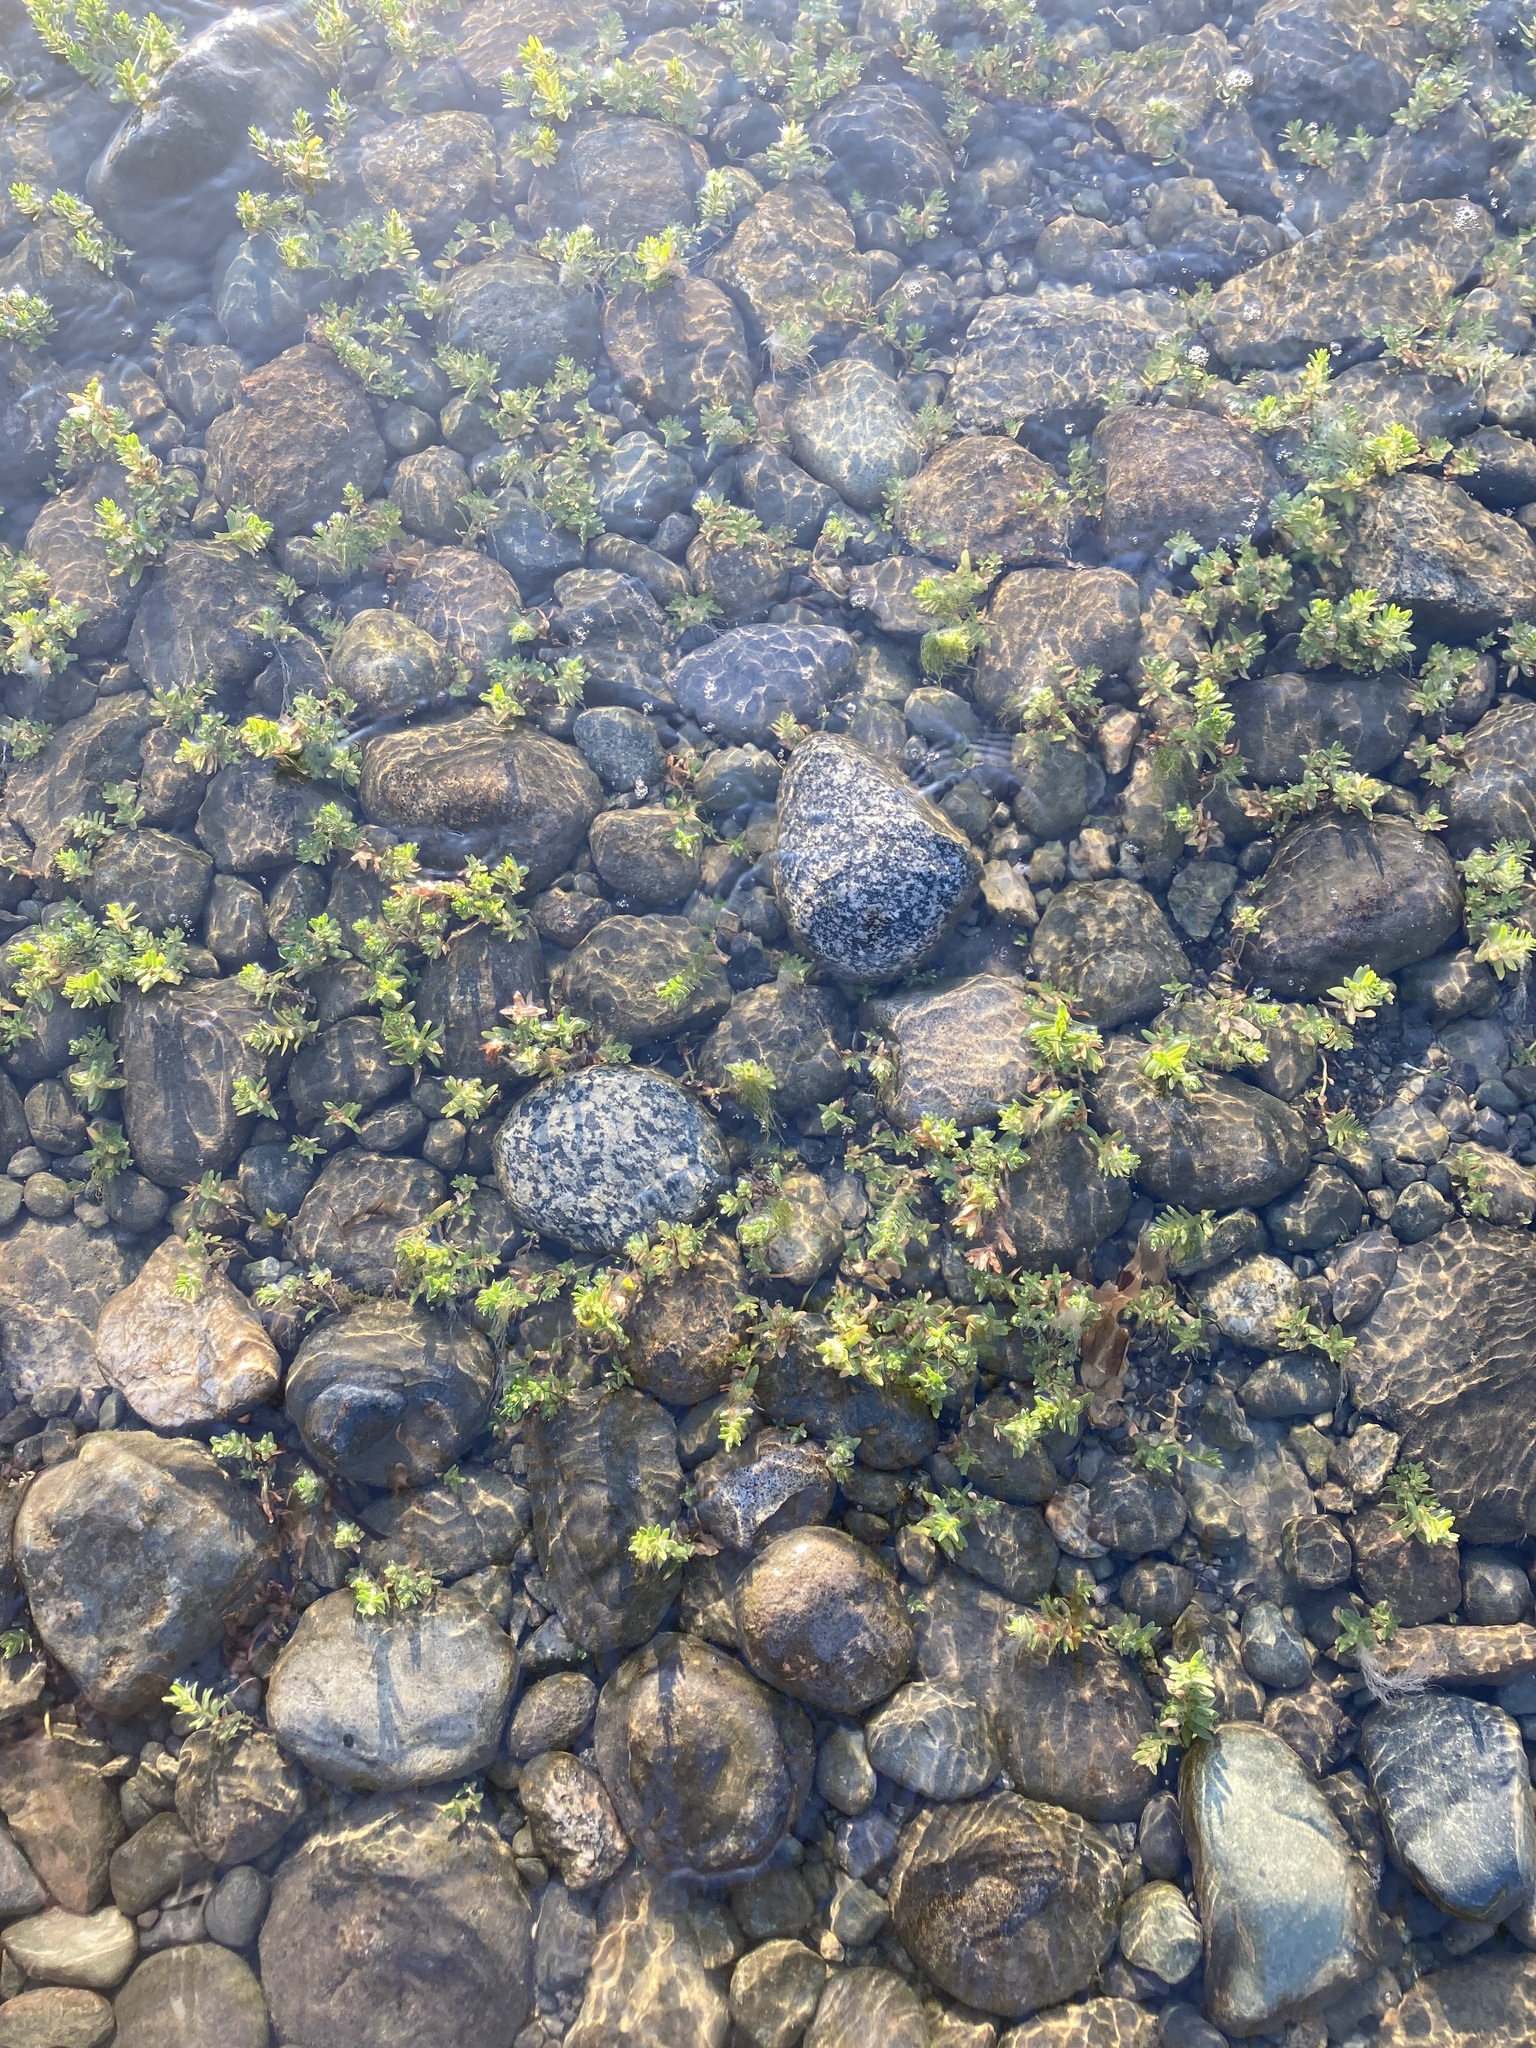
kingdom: Plantae
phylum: Tracheophyta
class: Magnoliopsida
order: Ericales
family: Primulaceae
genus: Lysimachia
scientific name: Lysimachia maritima
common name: Sea milkwort
